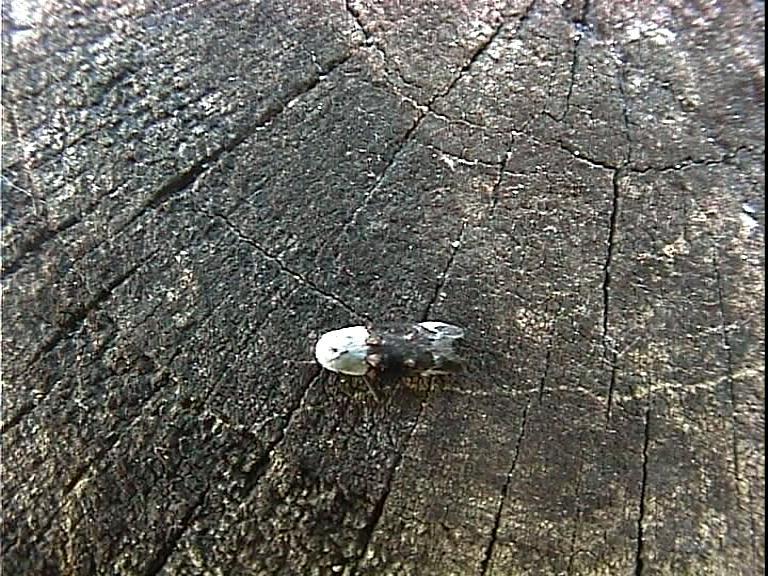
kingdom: Animalia
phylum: Arthropoda
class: Insecta
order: Lepidoptera
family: Oecophoridae
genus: Trachypepla
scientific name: Trachypepla euryleucota
